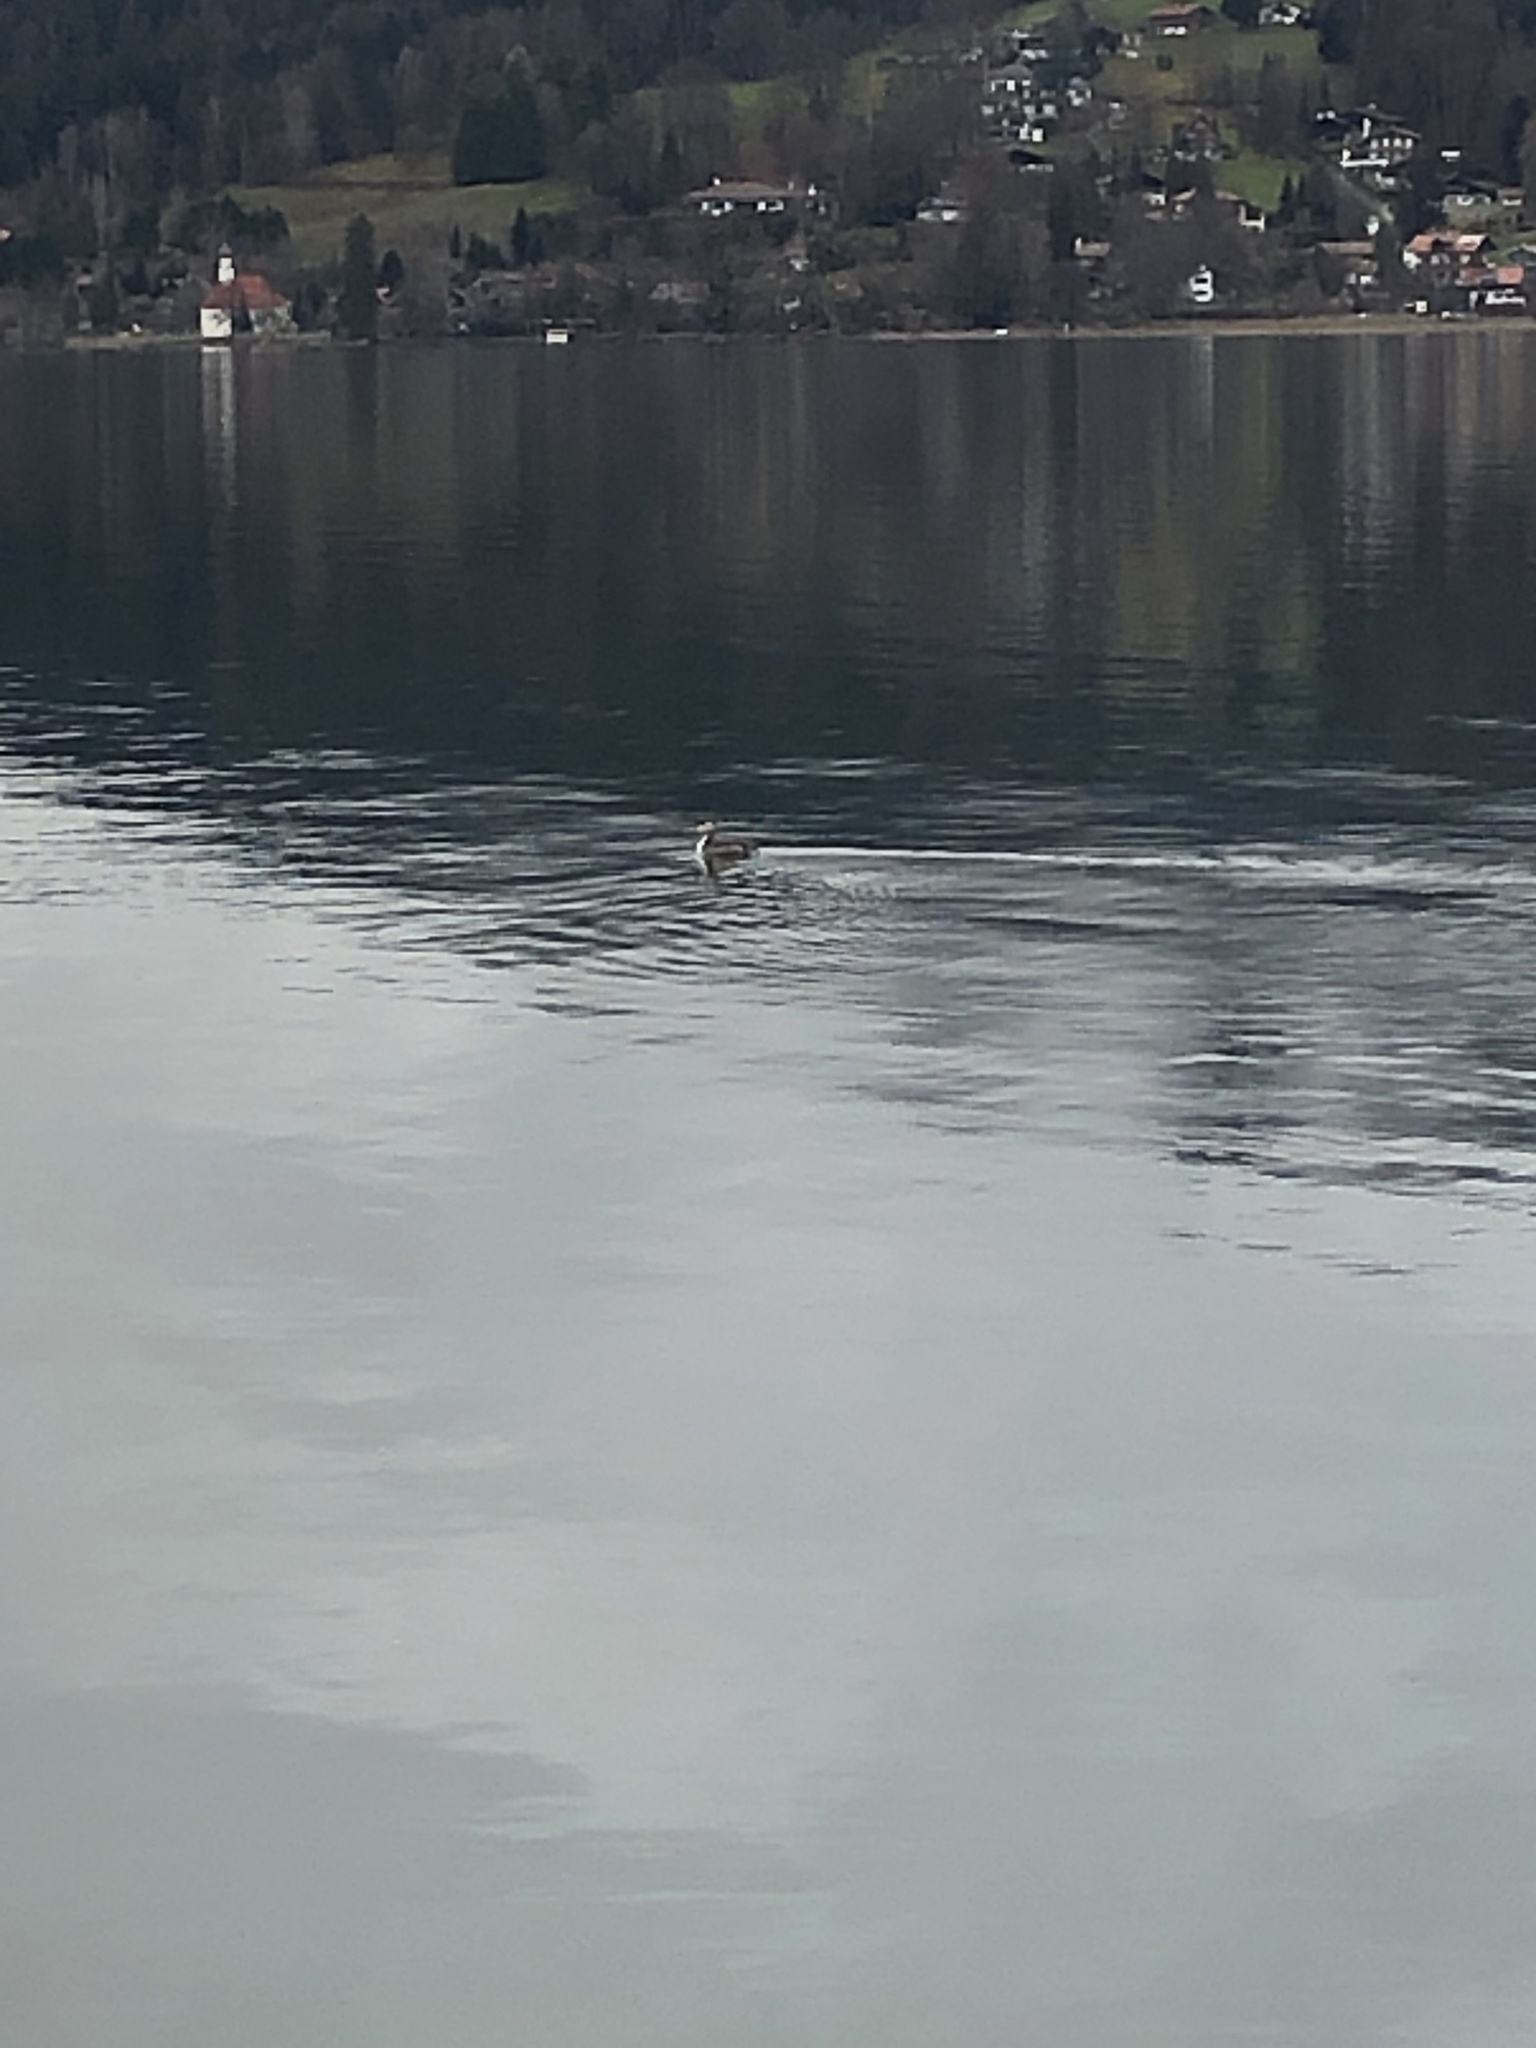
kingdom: Animalia
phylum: Chordata
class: Aves
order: Podicipediformes
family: Podicipedidae
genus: Podiceps
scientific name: Podiceps cristatus
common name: Great crested grebe
